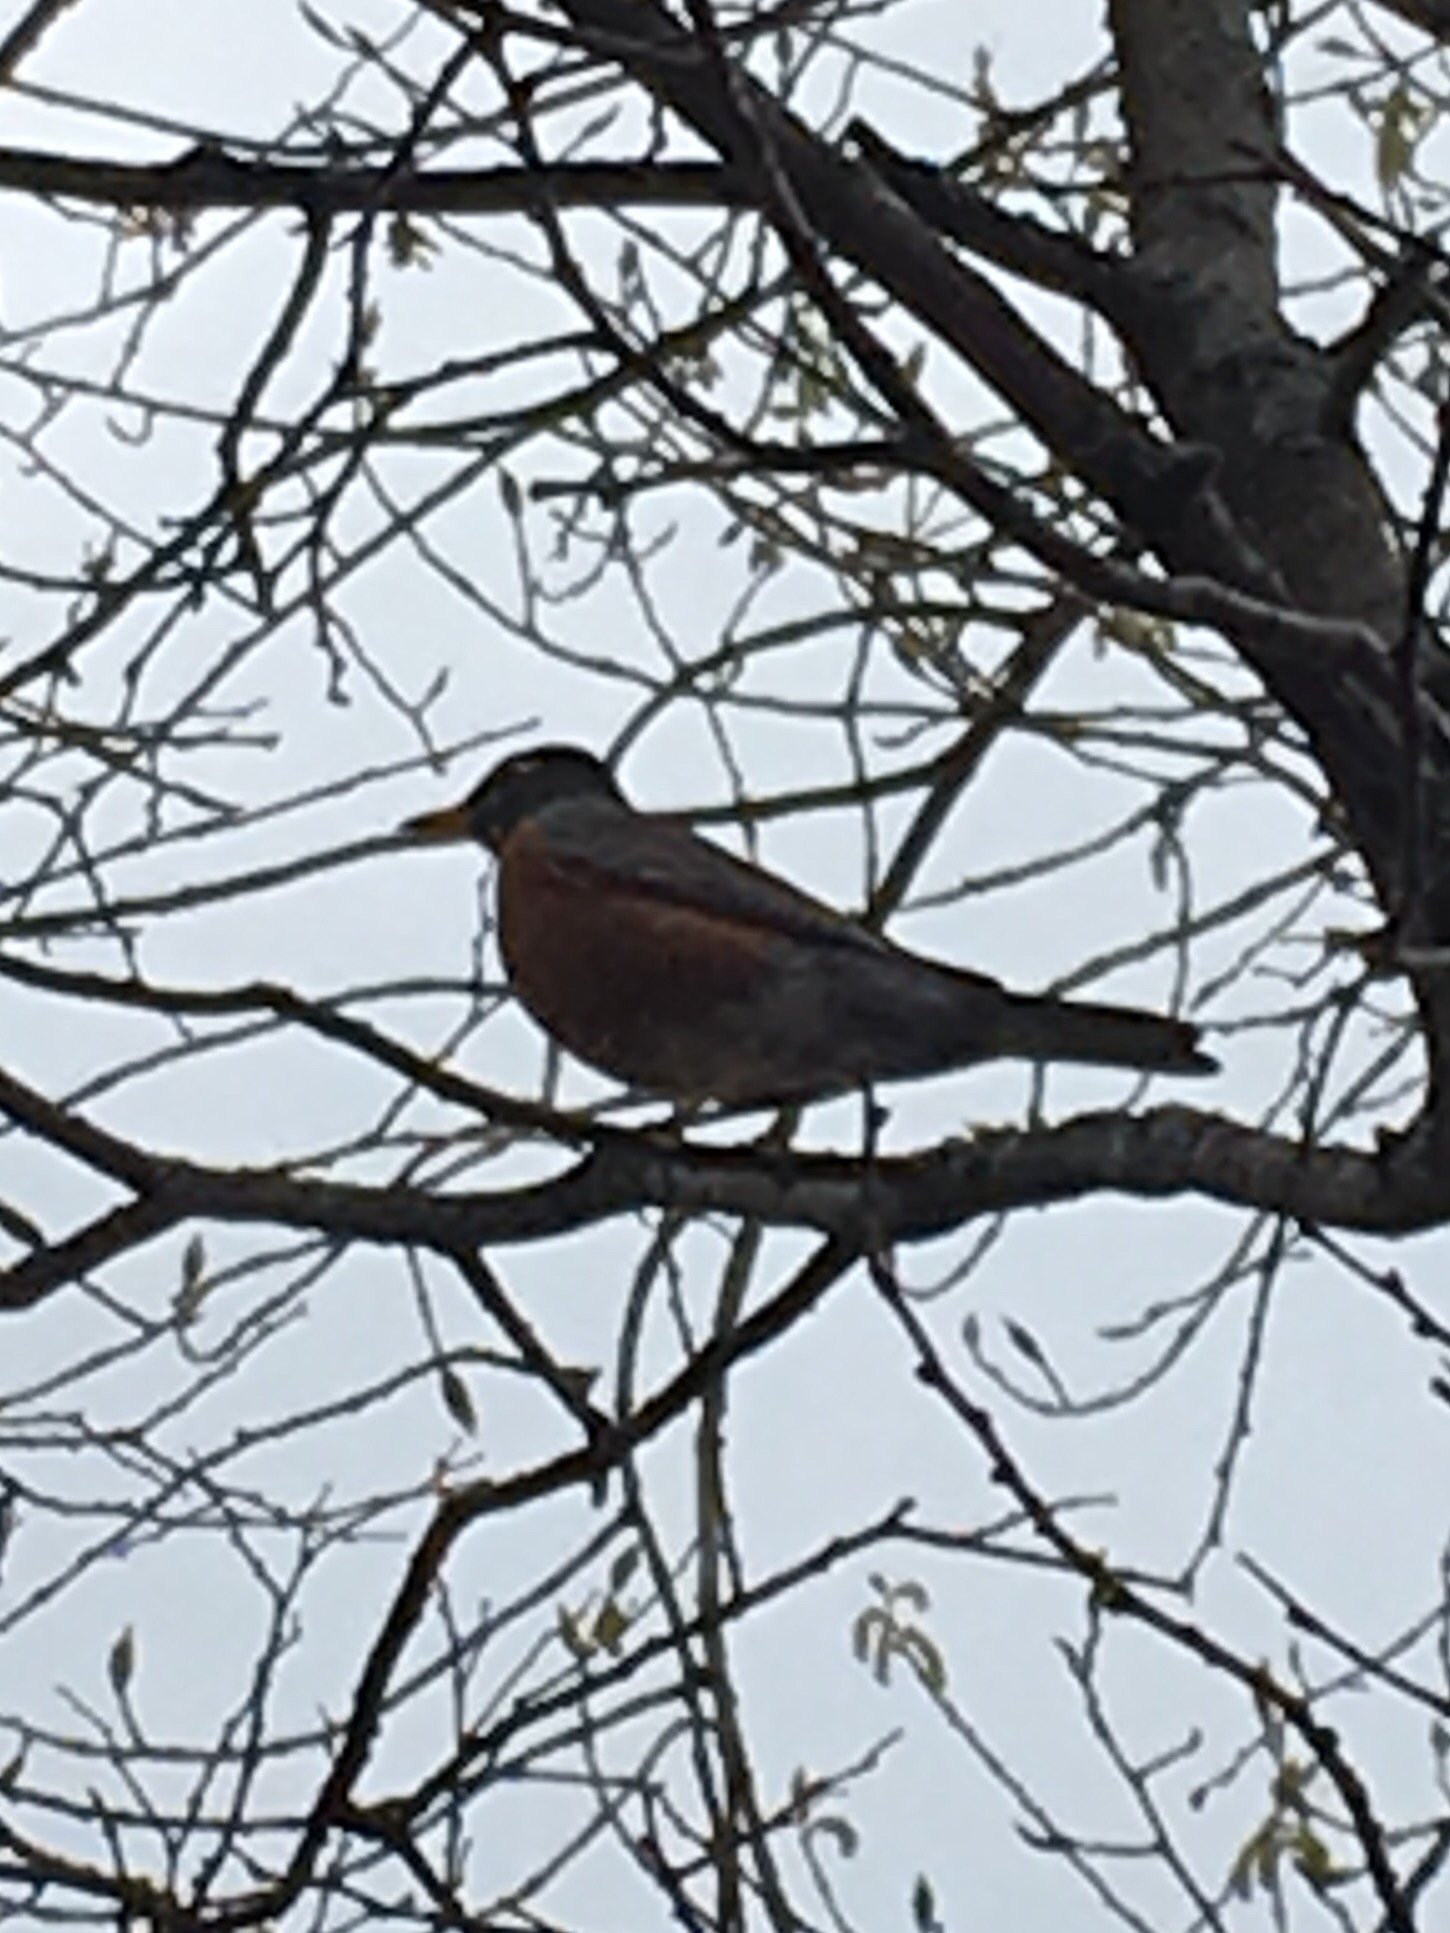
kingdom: Animalia
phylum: Chordata
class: Aves
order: Passeriformes
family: Turdidae
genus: Turdus
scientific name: Turdus migratorius
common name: American robin
